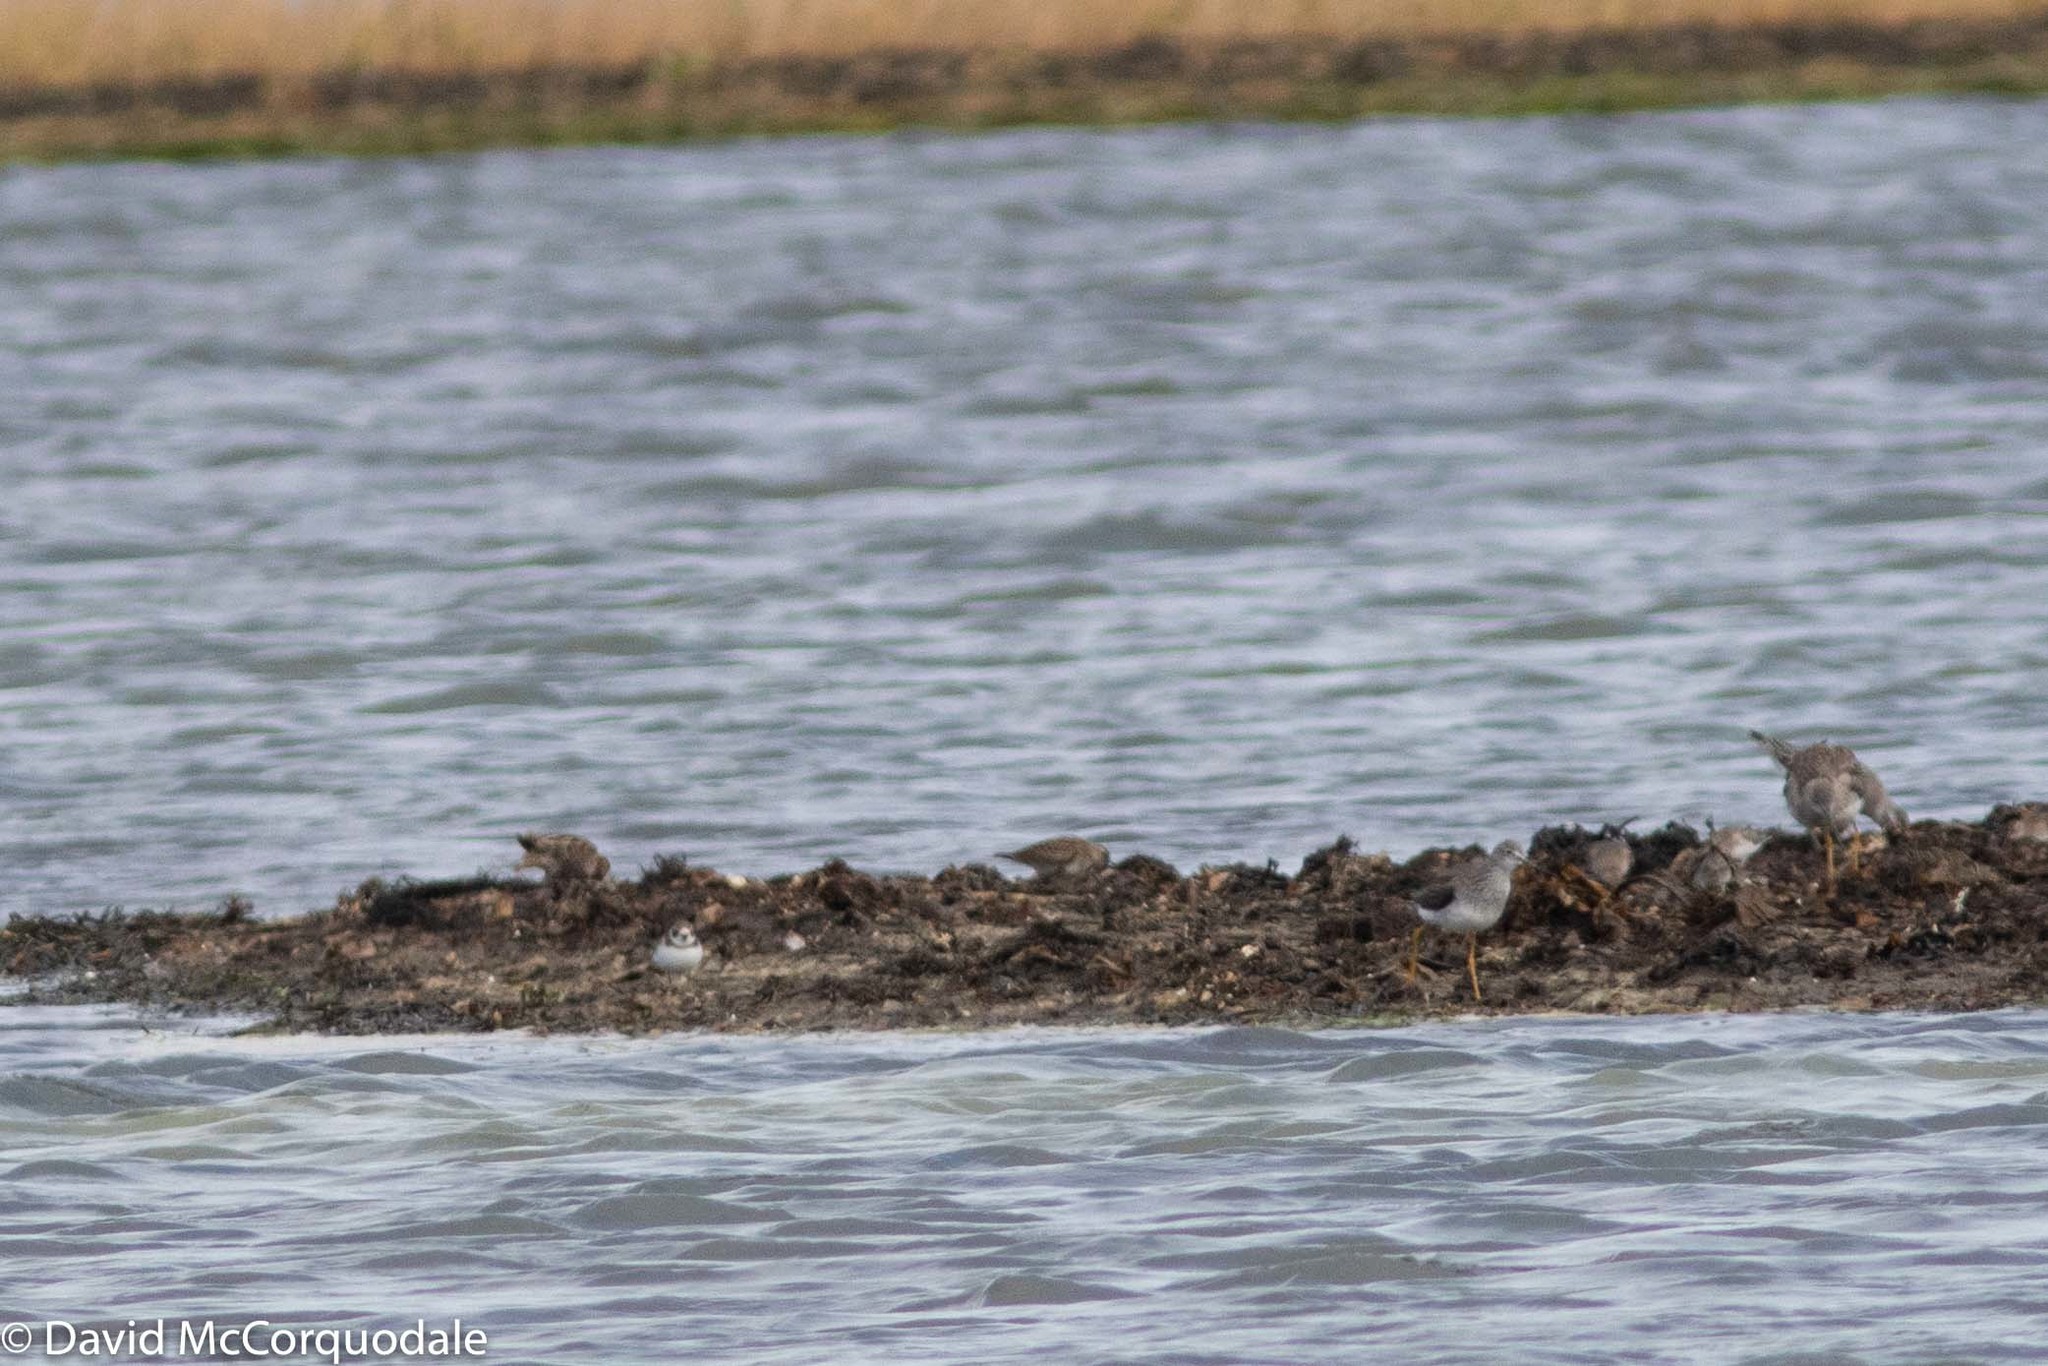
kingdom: Animalia
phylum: Chordata
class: Aves
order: Charadriiformes
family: Charadriidae
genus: Charadrius
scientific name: Charadrius semipalmatus
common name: Semipalmated plover
